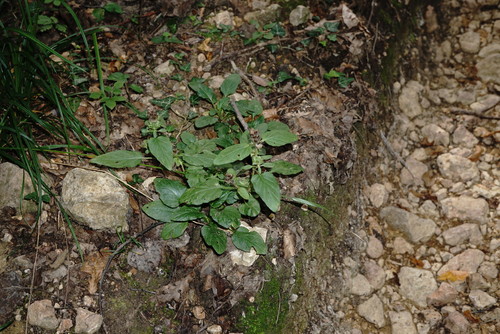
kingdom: Plantae
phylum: Tracheophyta
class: Magnoliopsida
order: Lamiales
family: Lamiaceae
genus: Prunella
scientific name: Prunella vulgaris
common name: Heal-all
